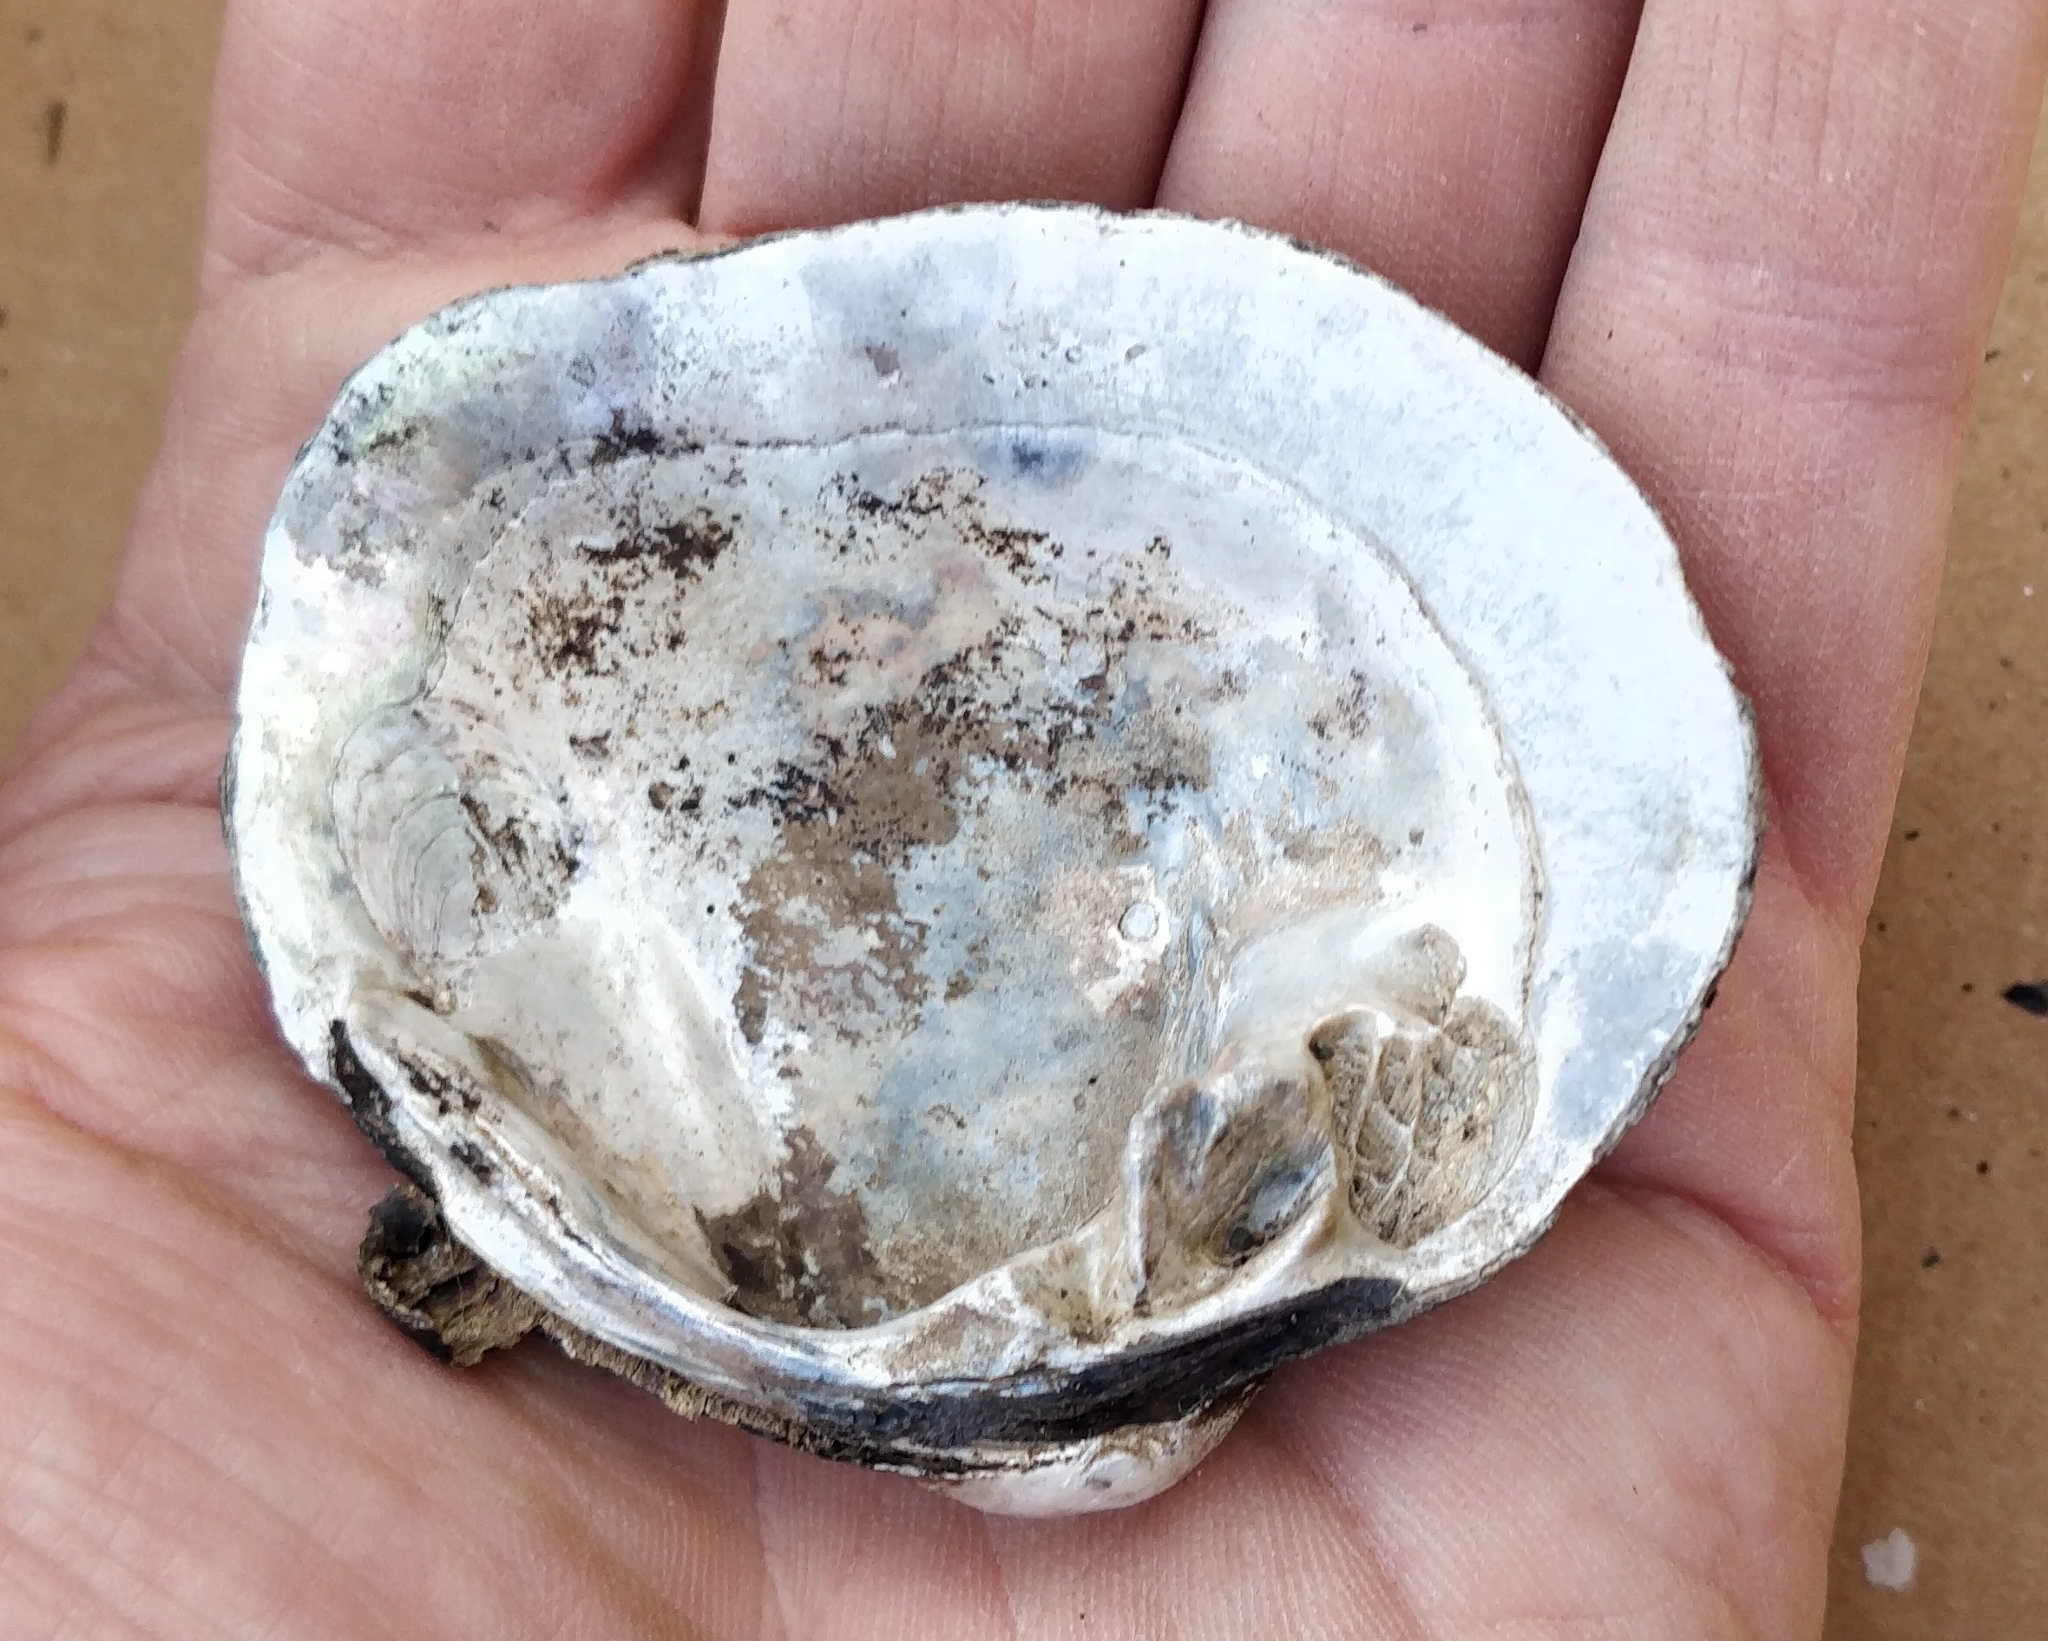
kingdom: Animalia
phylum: Mollusca
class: Bivalvia
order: Unionida
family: Unionidae
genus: Cyclonaias
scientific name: Cyclonaias pustulosa
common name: Pimpleback
